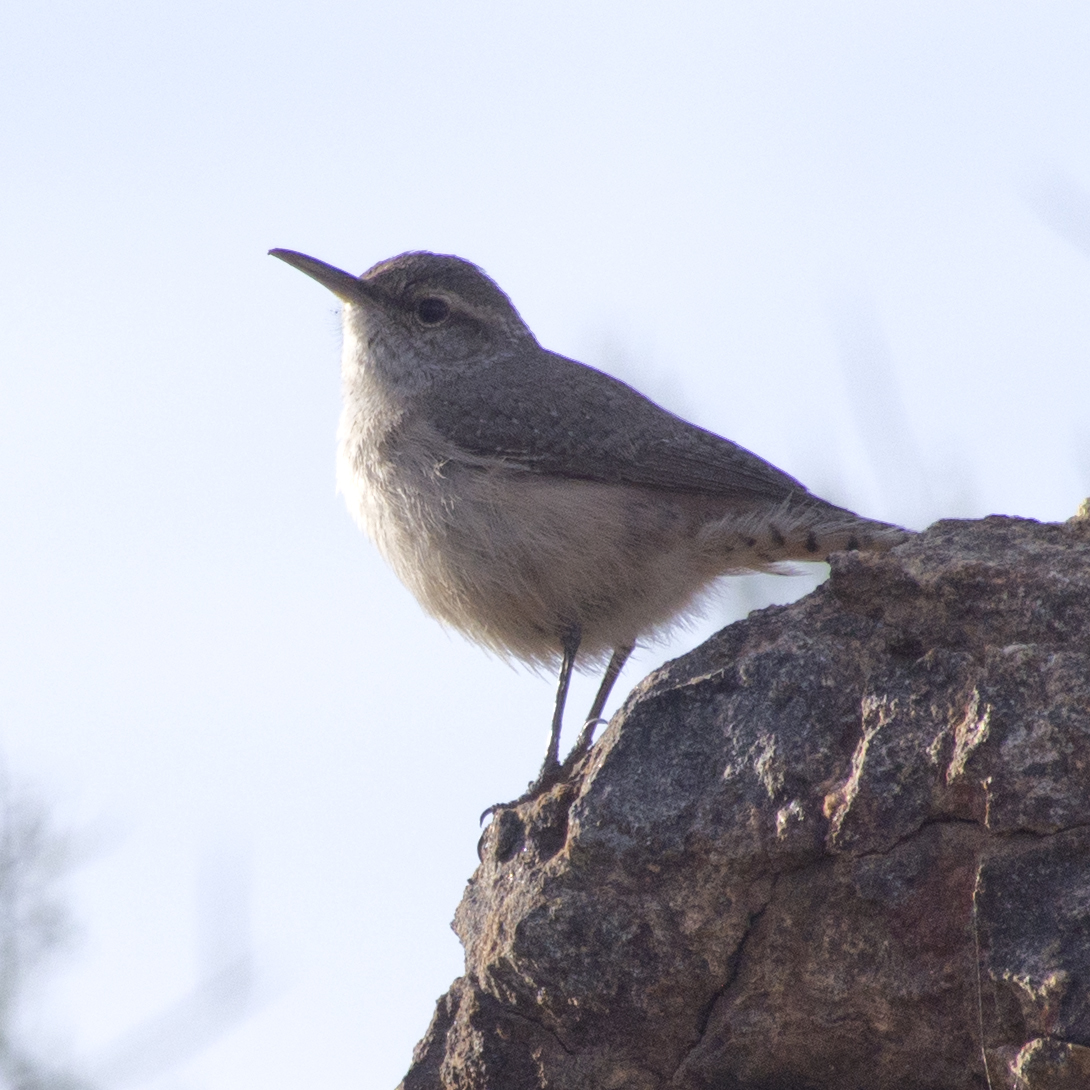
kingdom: Animalia
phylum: Chordata
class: Aves
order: Passeriformes
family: Troglodytidae
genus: Salpinctes
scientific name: Salpinctes obsoletus
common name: Rock wren
